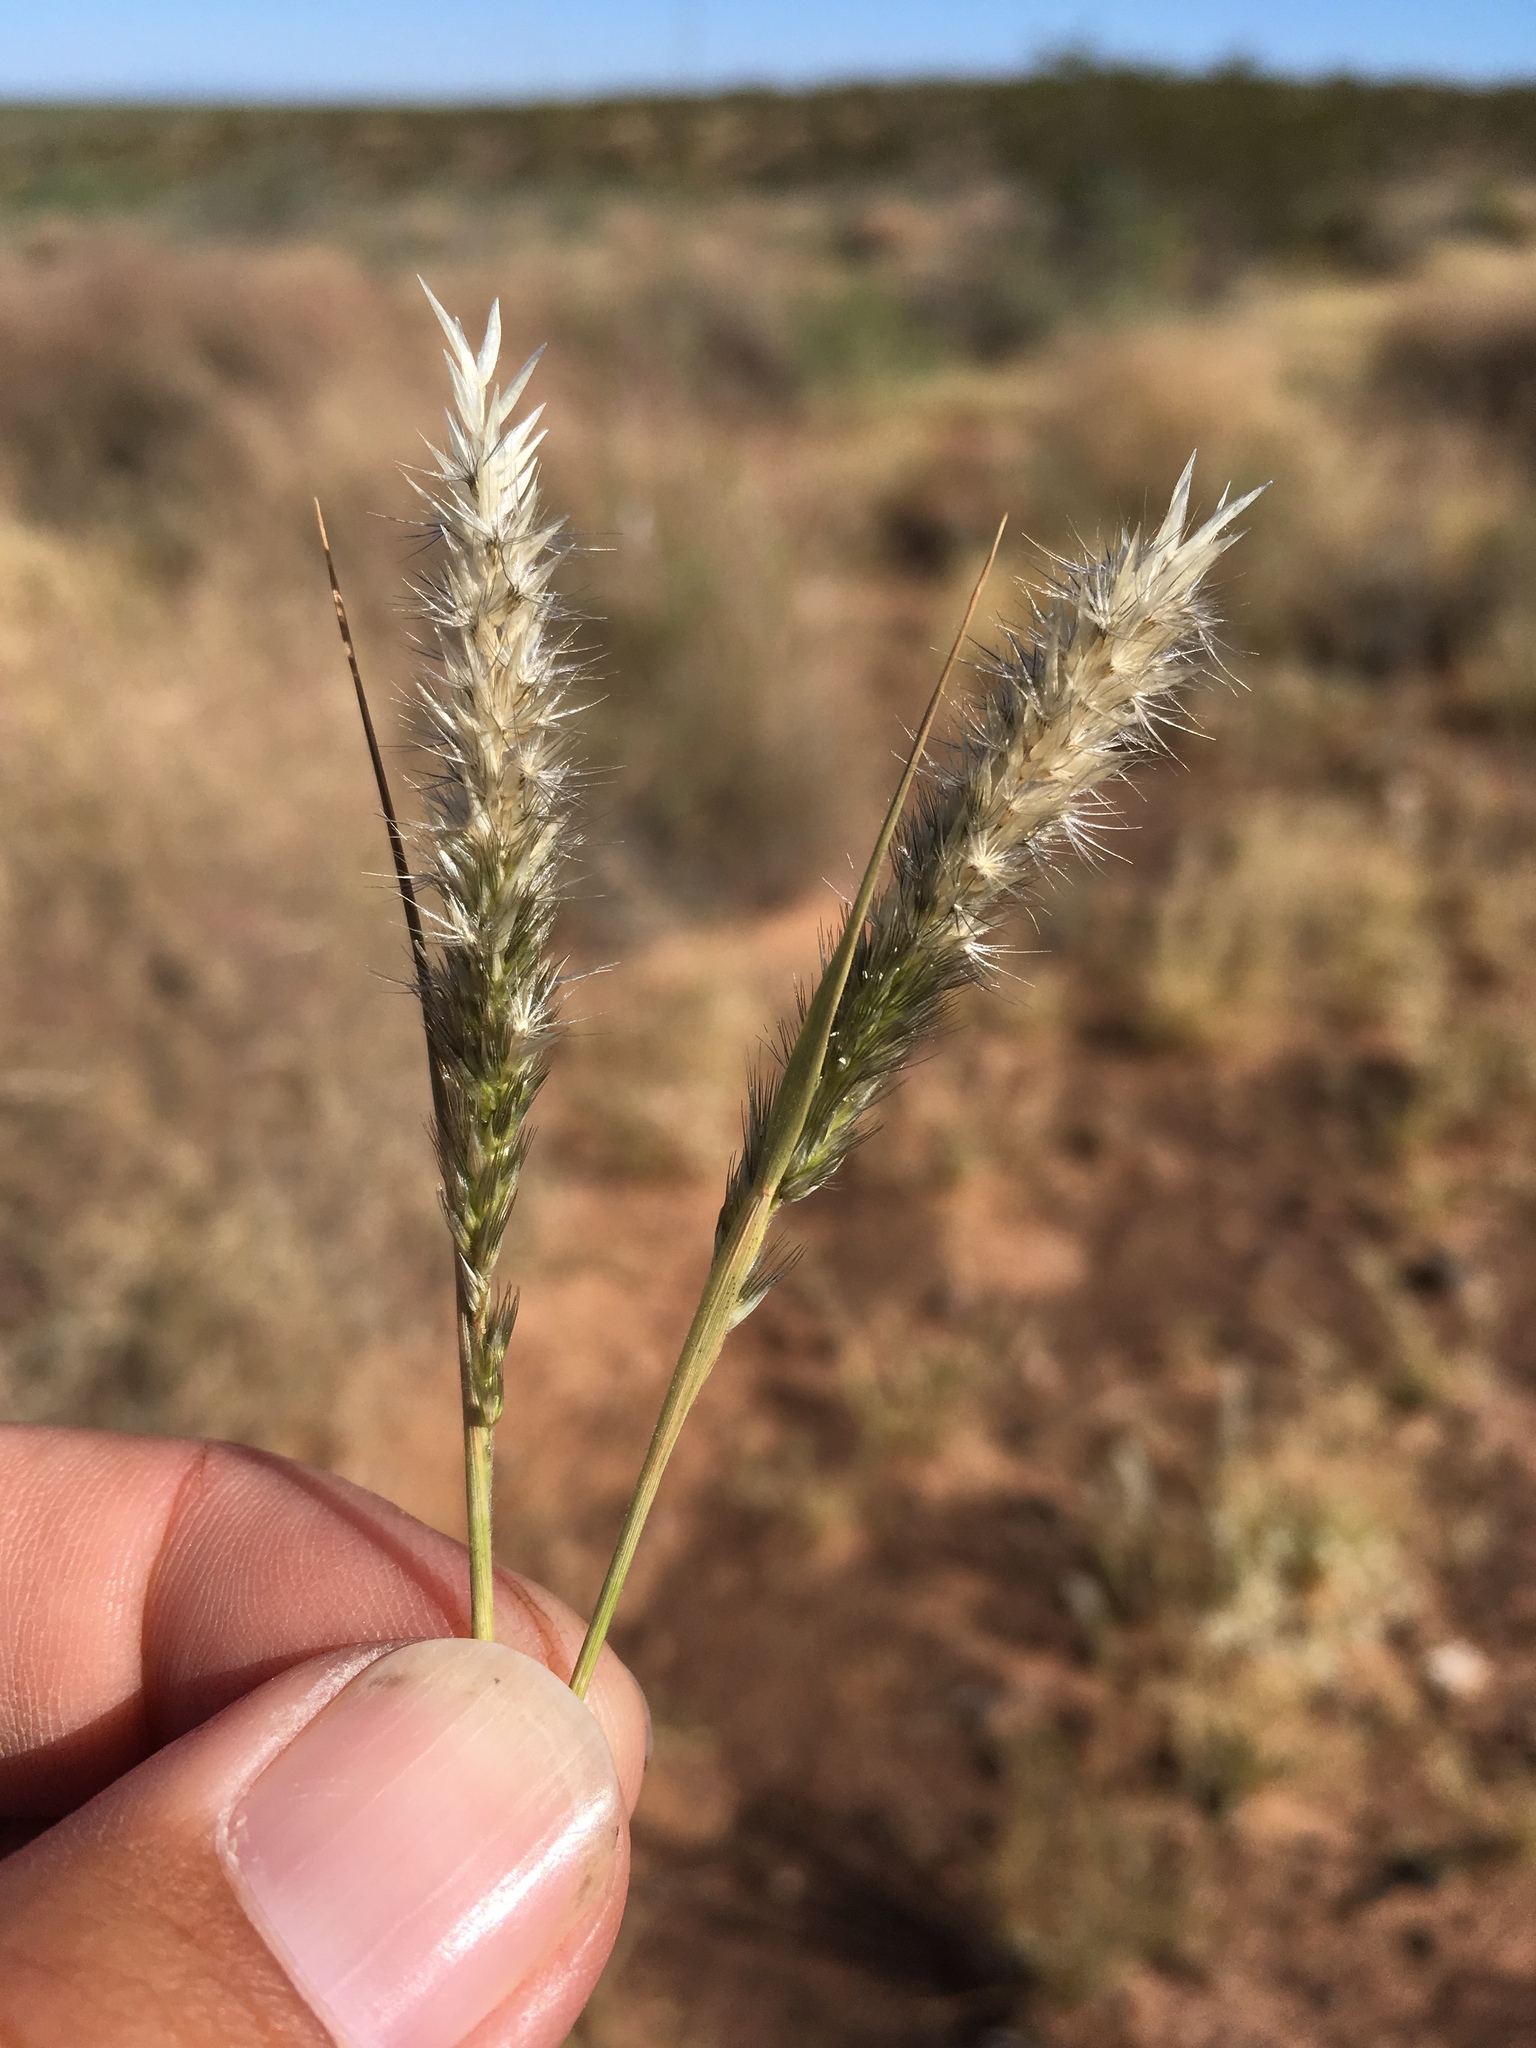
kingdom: Plantae
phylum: Tracheophyta
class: Liliopsida
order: Poales
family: Poaceae
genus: Enneapogon
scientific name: Enneapogon desvauxii
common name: Feather pappus grass
